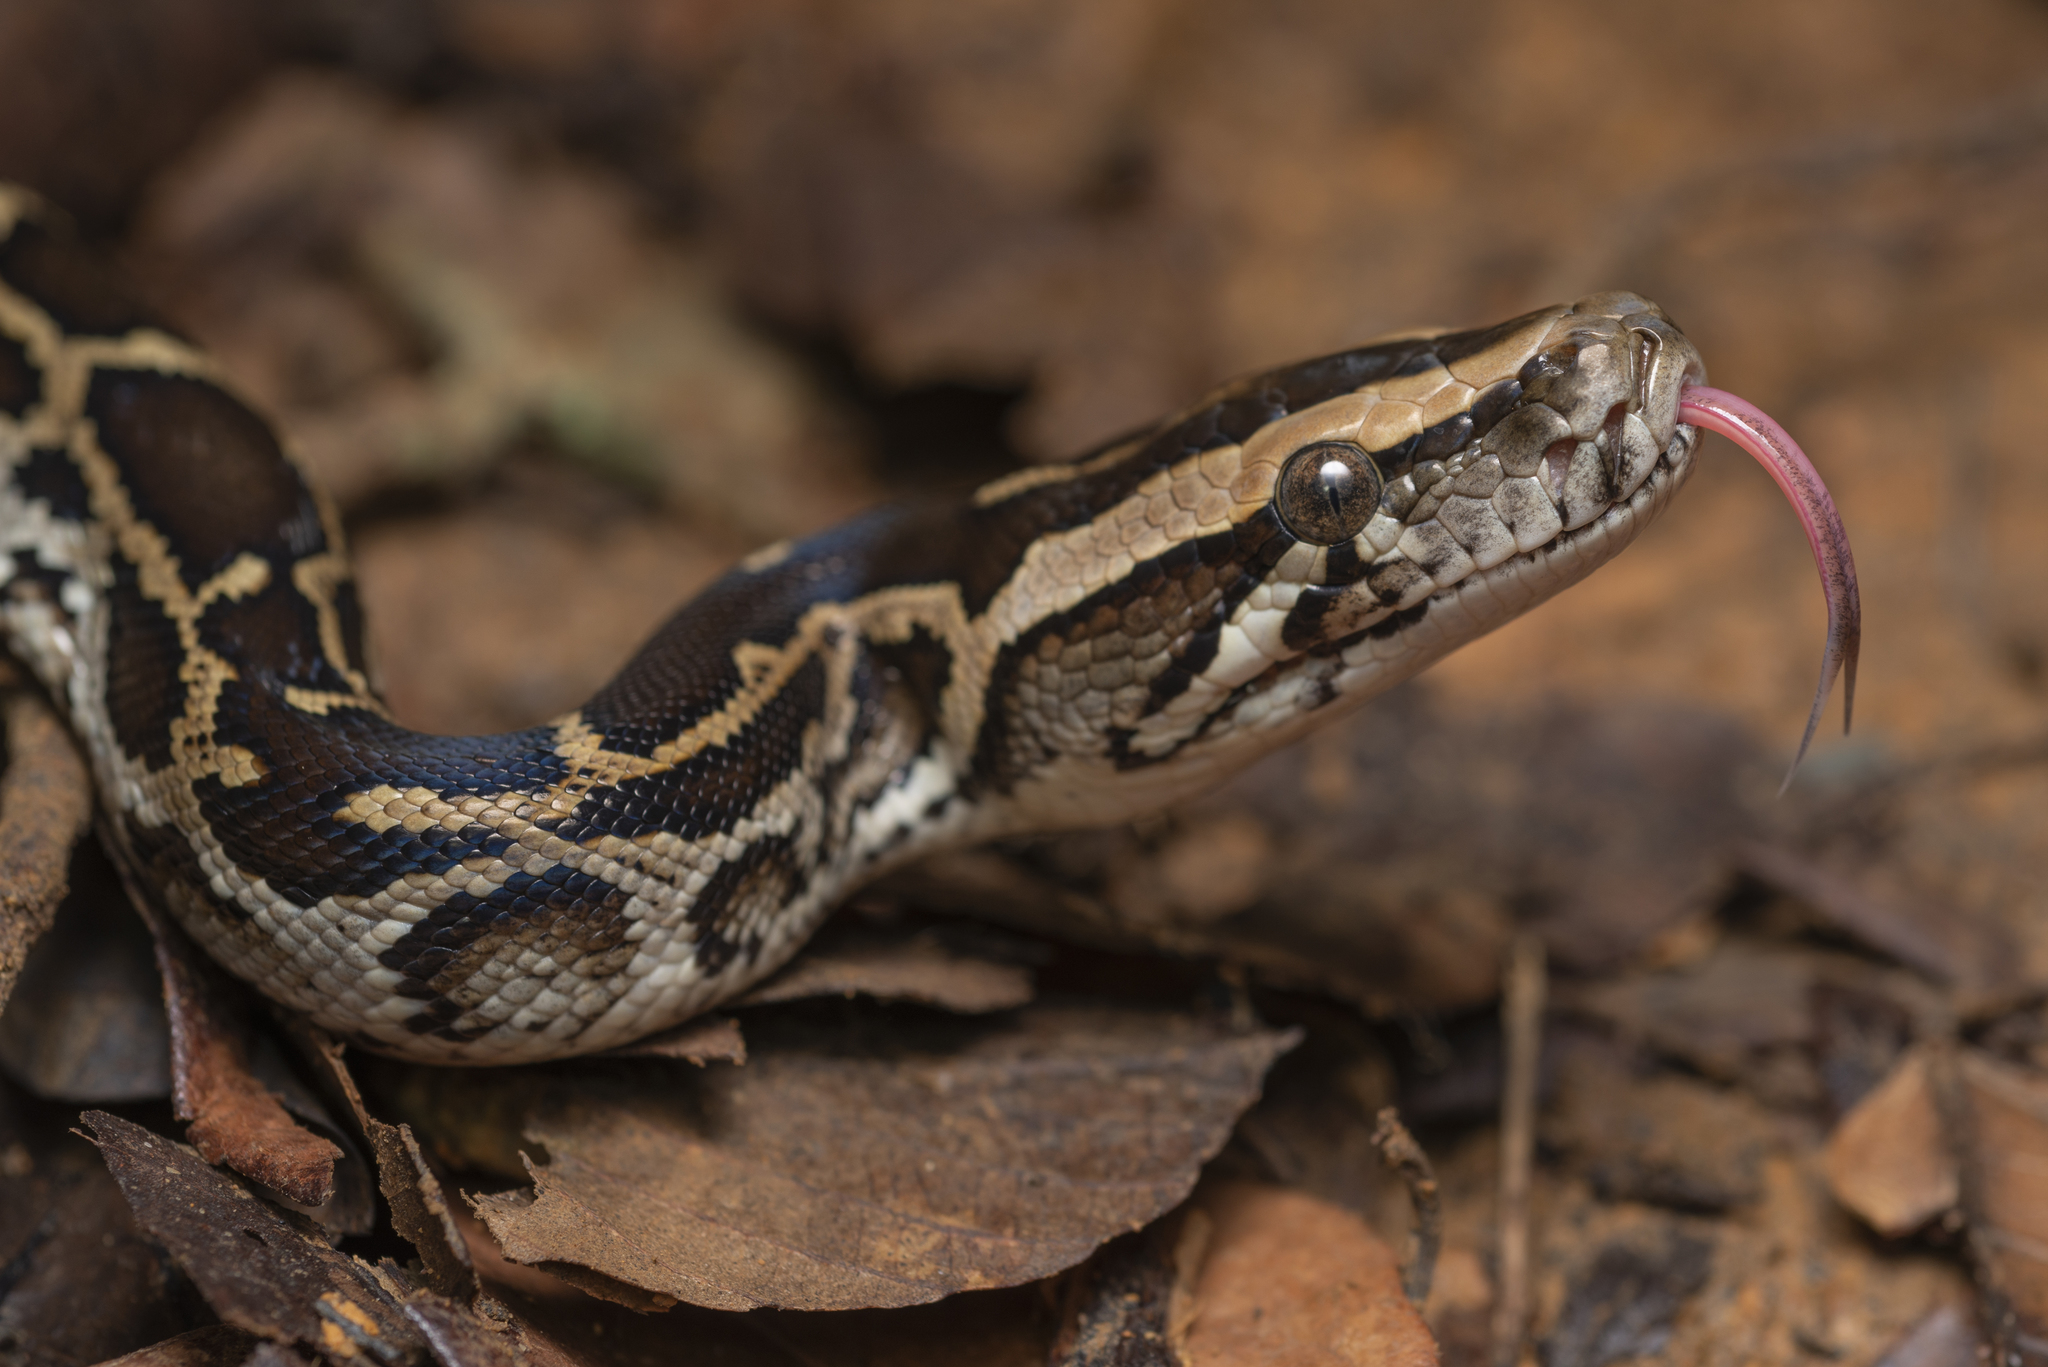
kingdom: Animalia
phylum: Chordata
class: Squamata
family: Pythonidae
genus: Python
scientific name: Python bivittatus
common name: Burmese python
